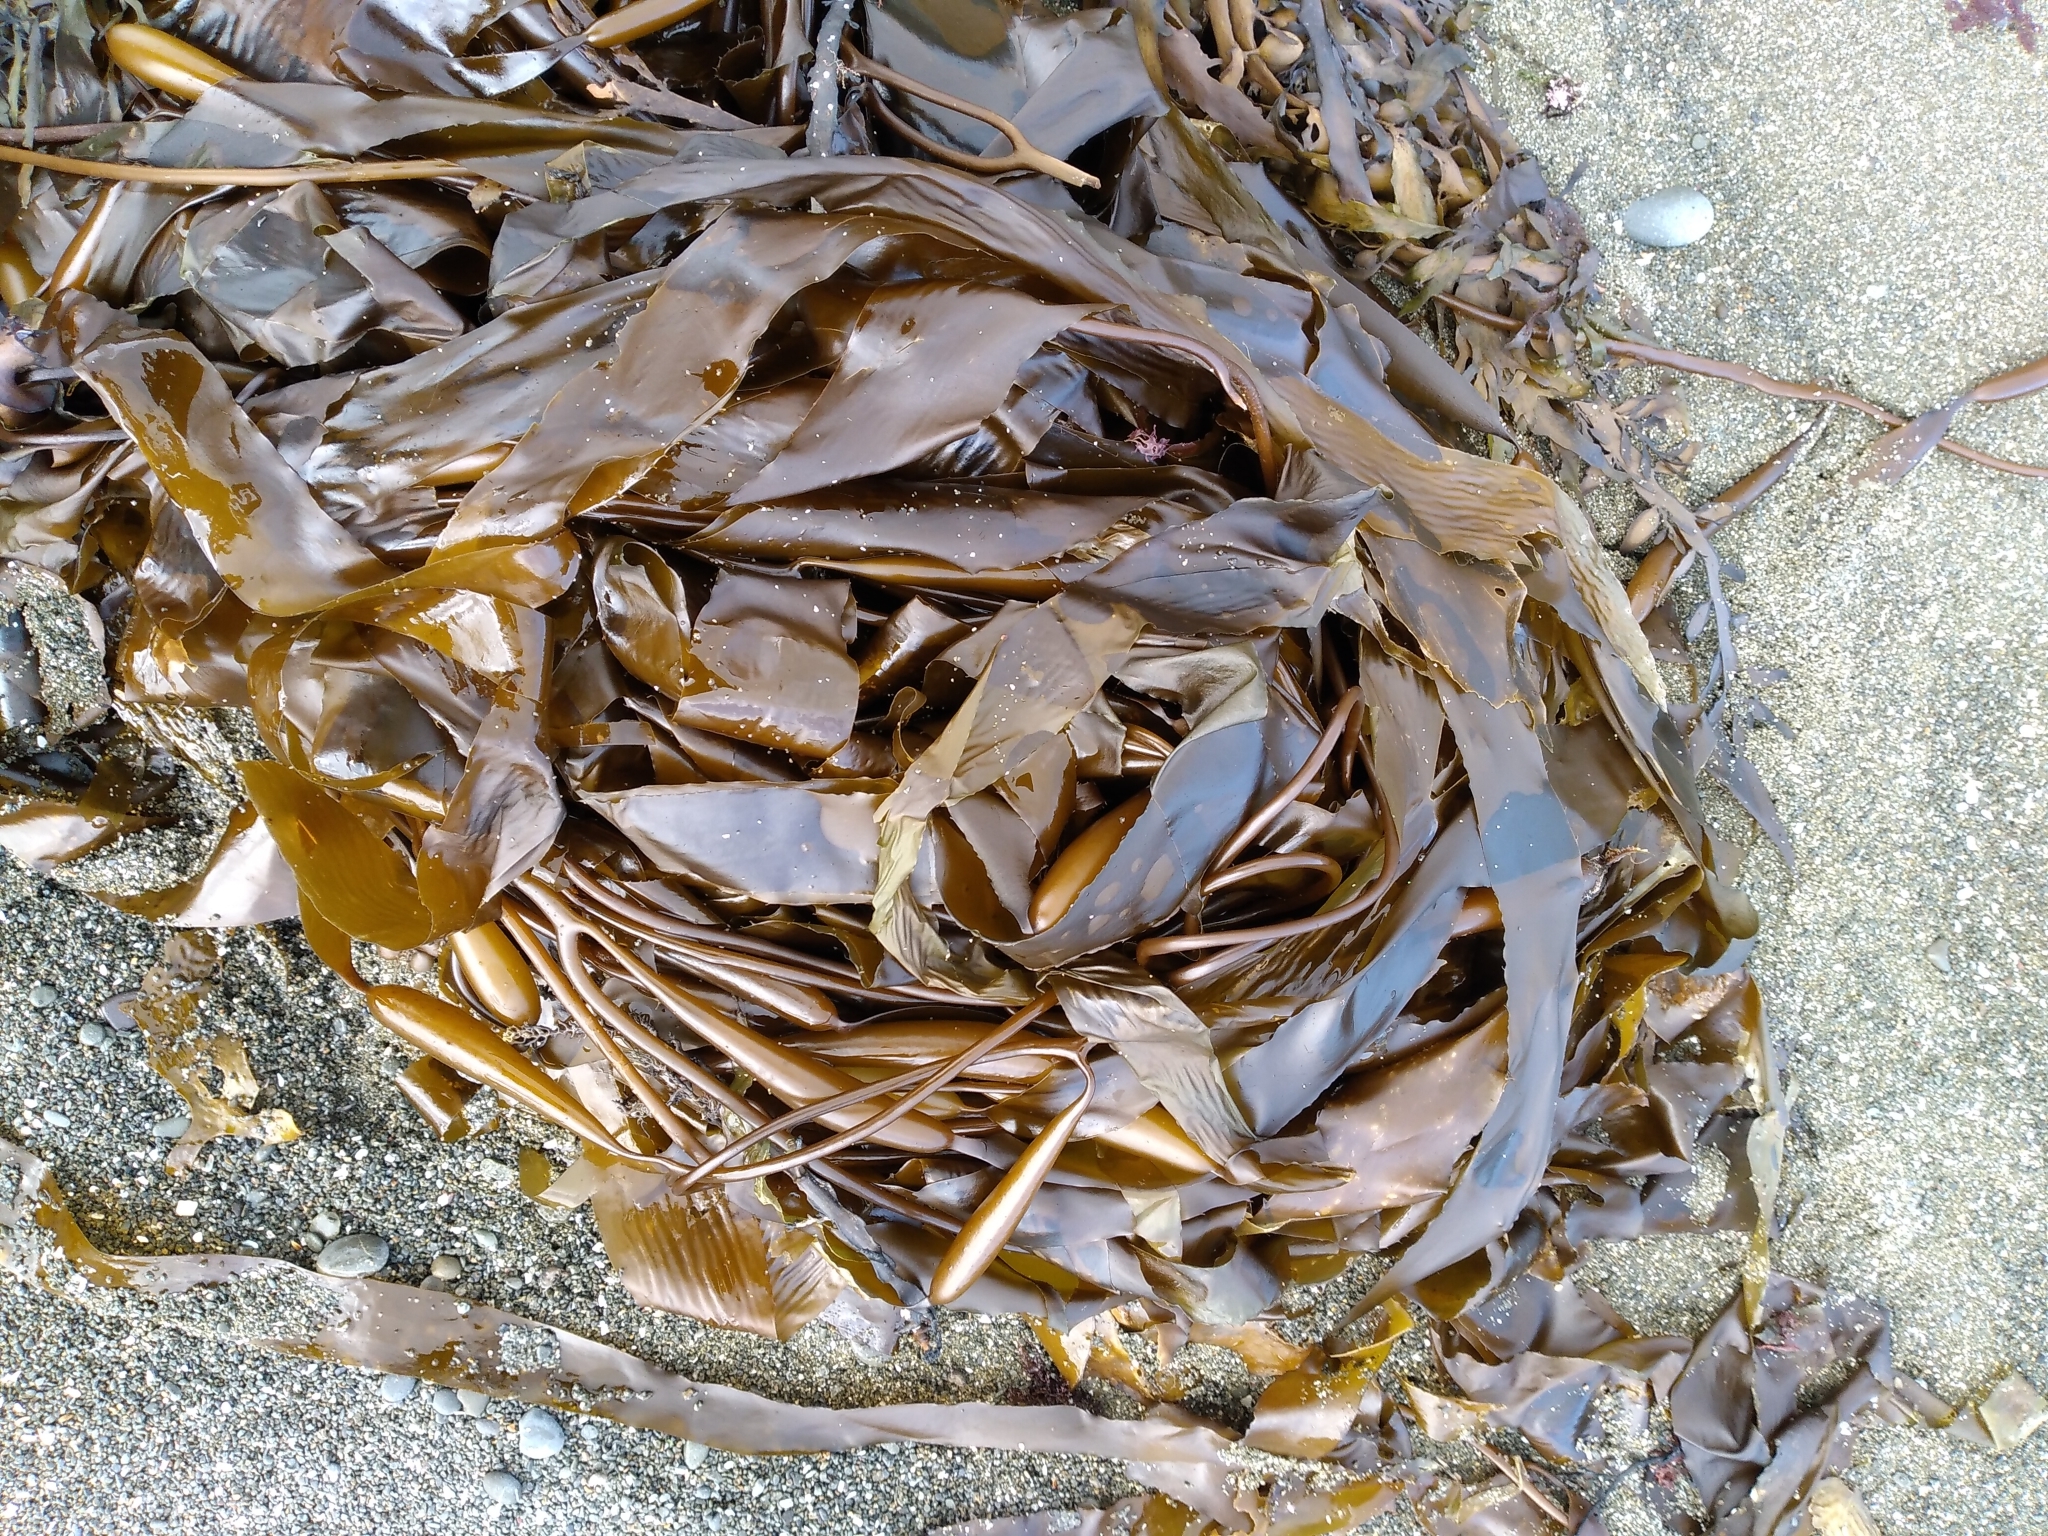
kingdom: Chromista
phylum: Ochrophyta
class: Phaeophyceae
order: Laminariales
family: Laminariaceae
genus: Macrocystis
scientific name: Macrocystis pyrifera
